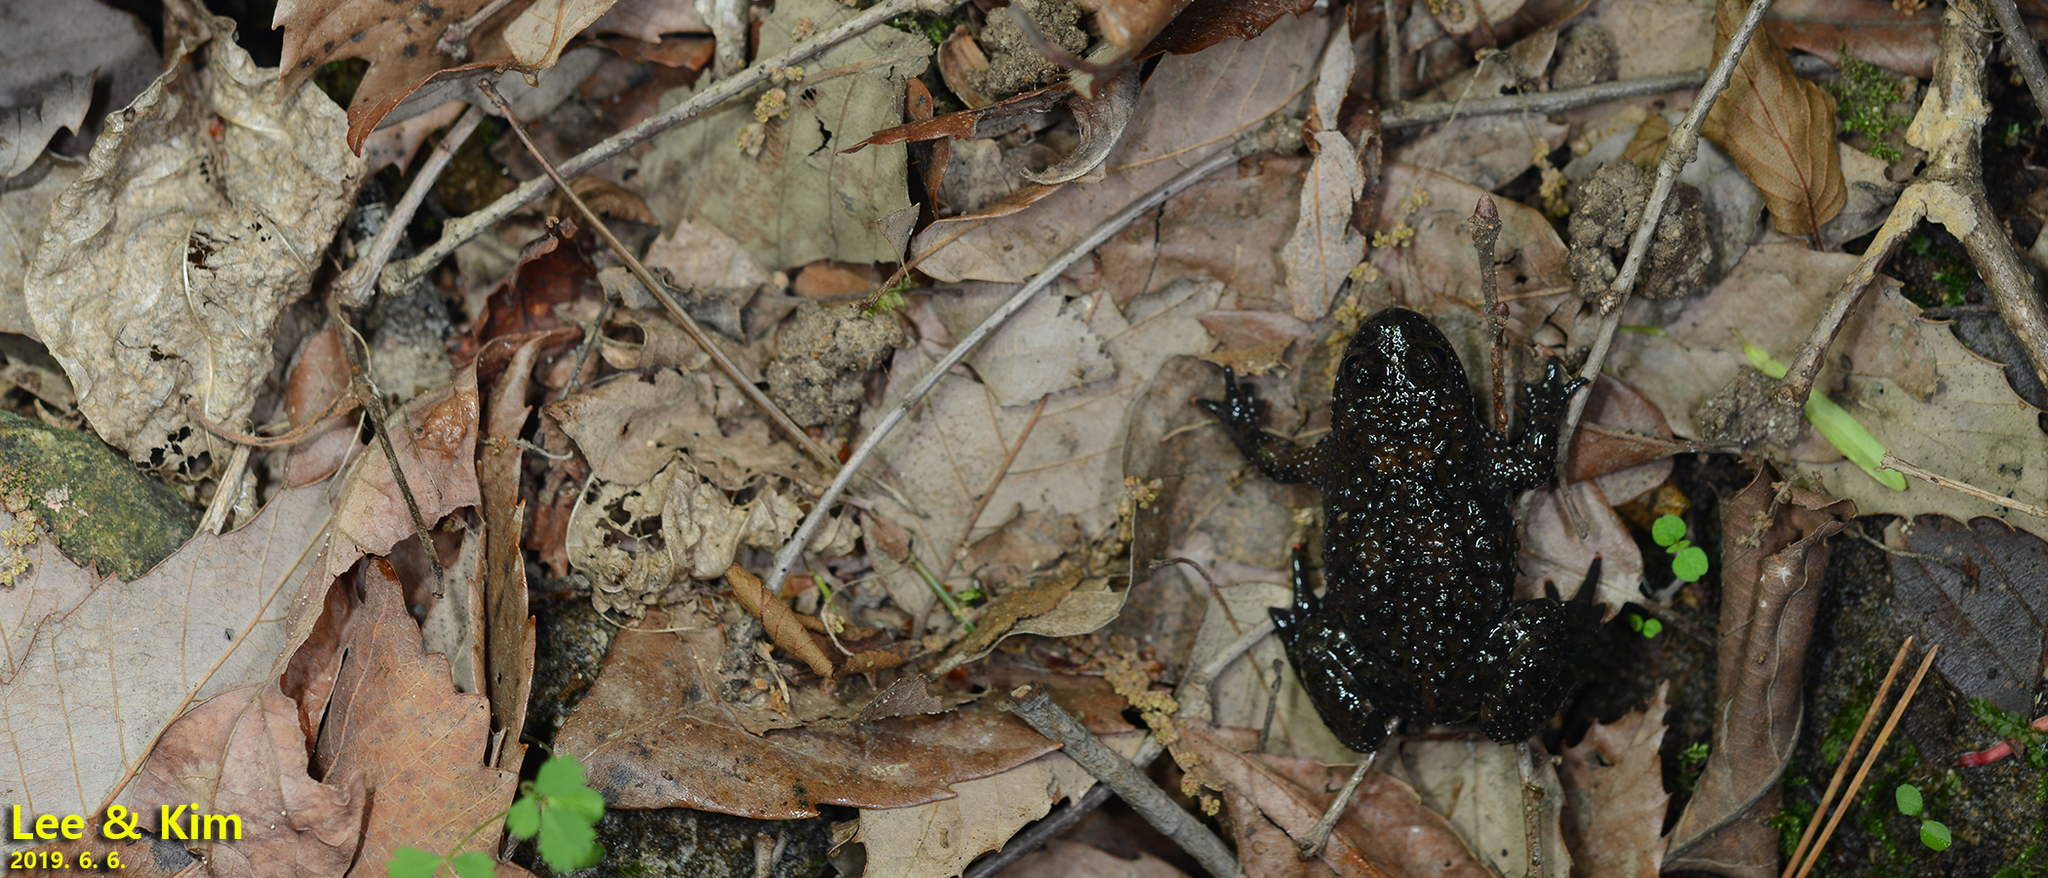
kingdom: Animalia
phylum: Chordata
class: Amphibia
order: Anura
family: Bombinatoridae
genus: Bombina
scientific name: Bombina orientalis
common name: Oriental firebelly toad
